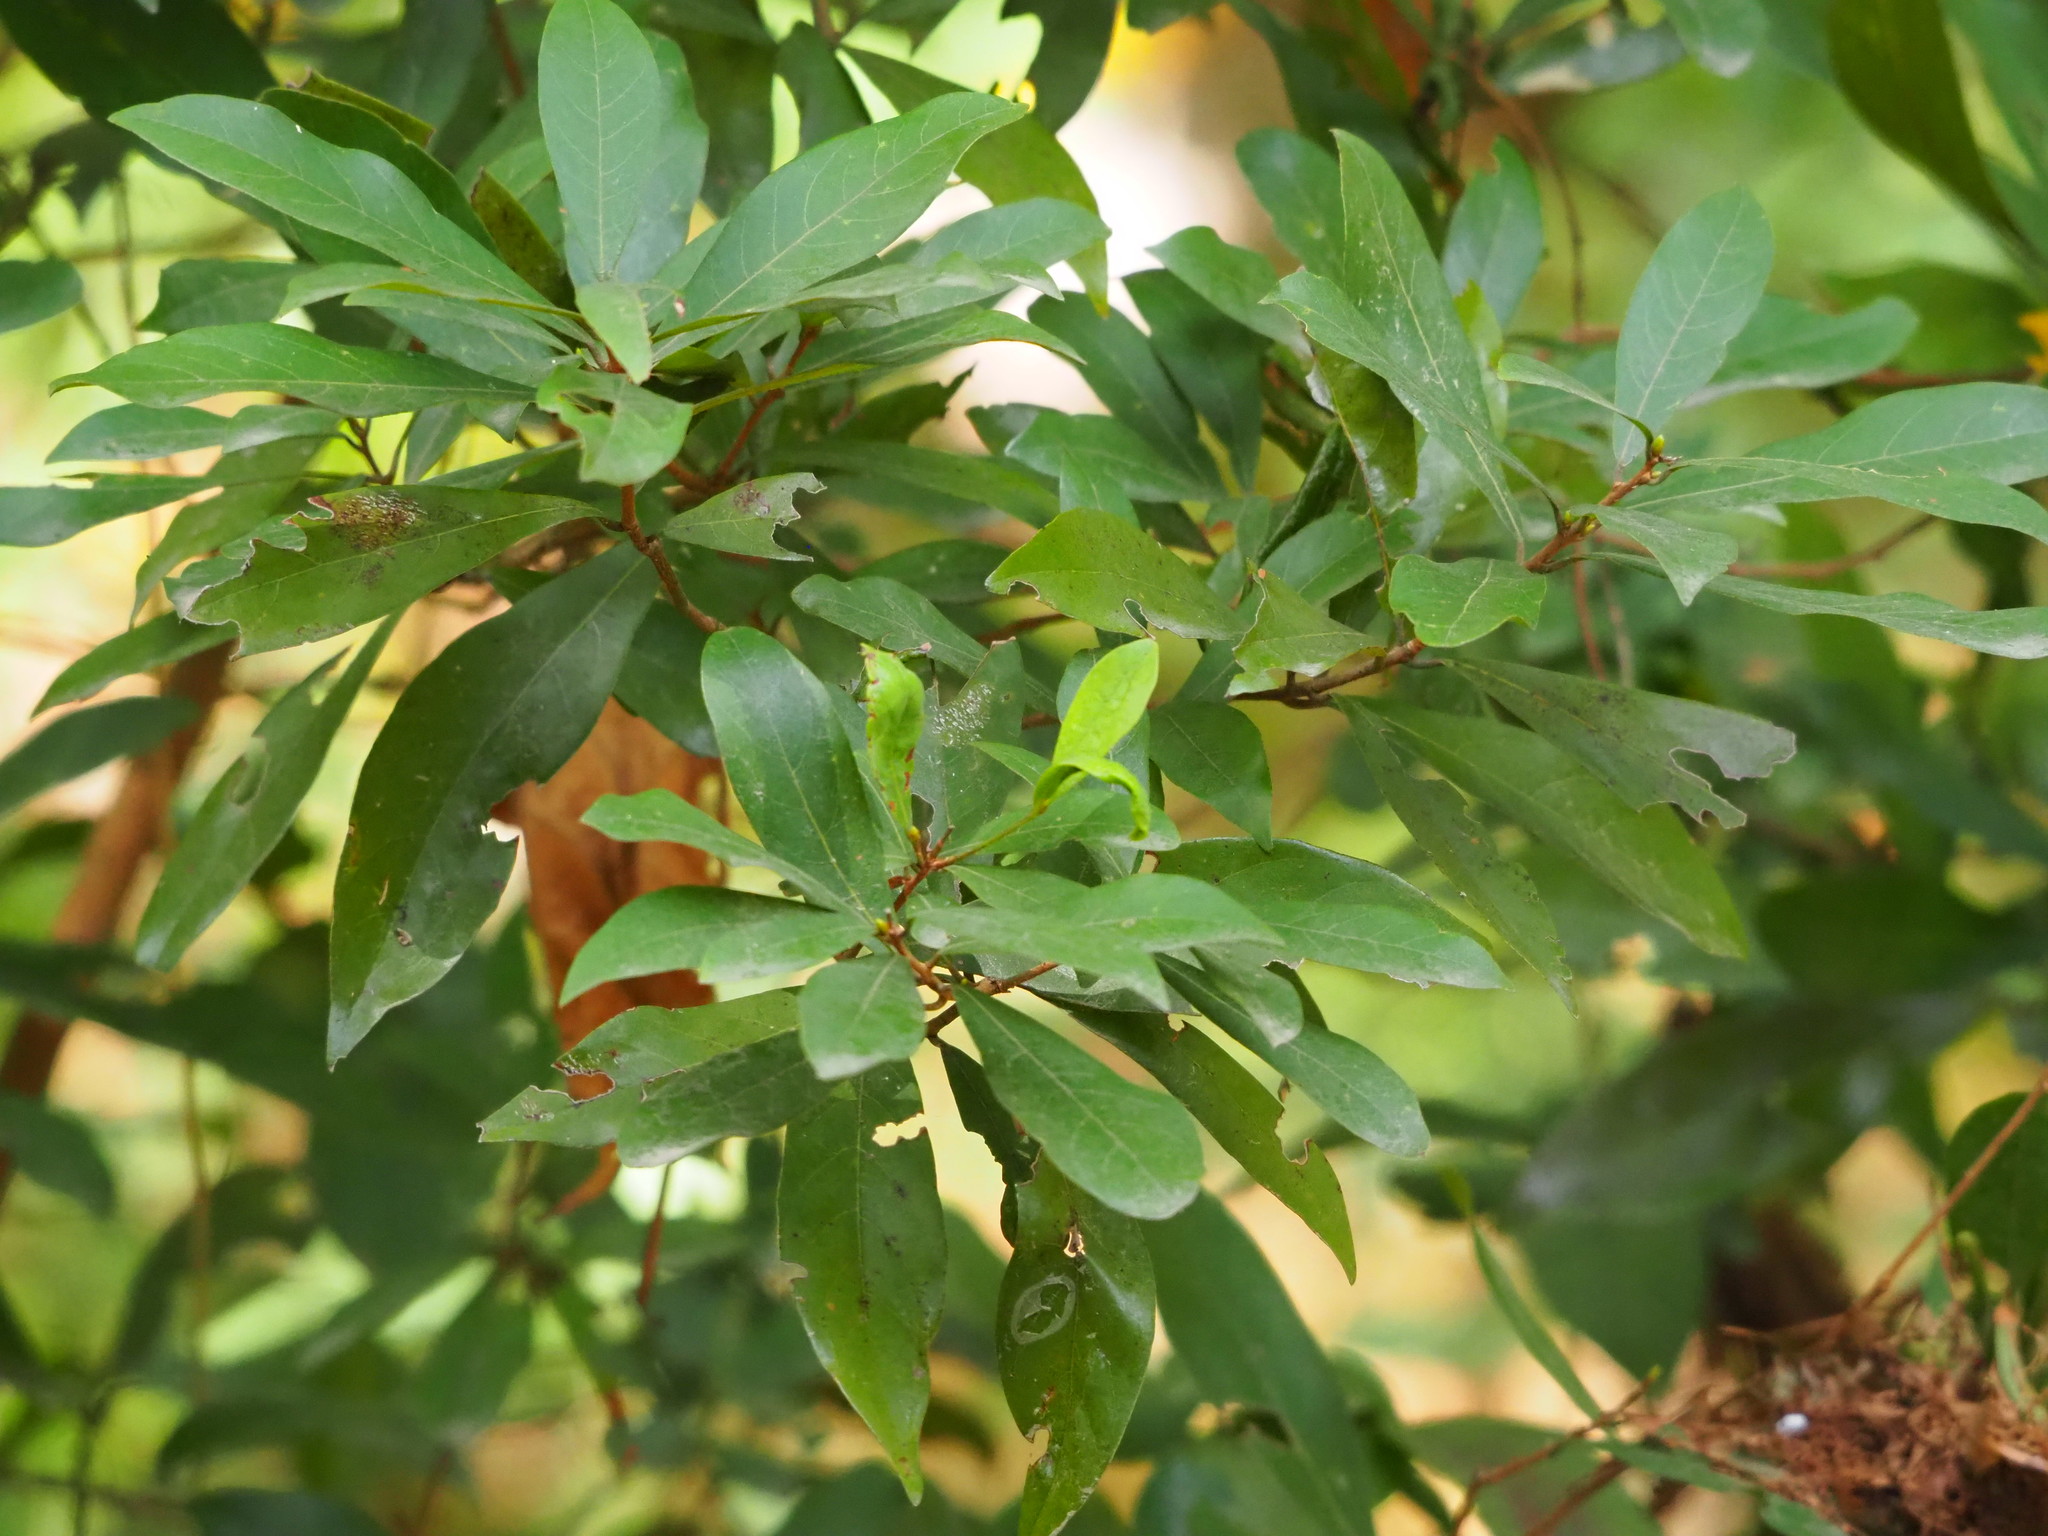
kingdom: Plantae
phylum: Tracheophyta
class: Magnoliopsida
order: Laurales
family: Lauraceae
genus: Litsea
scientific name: Litsea hypophaea
